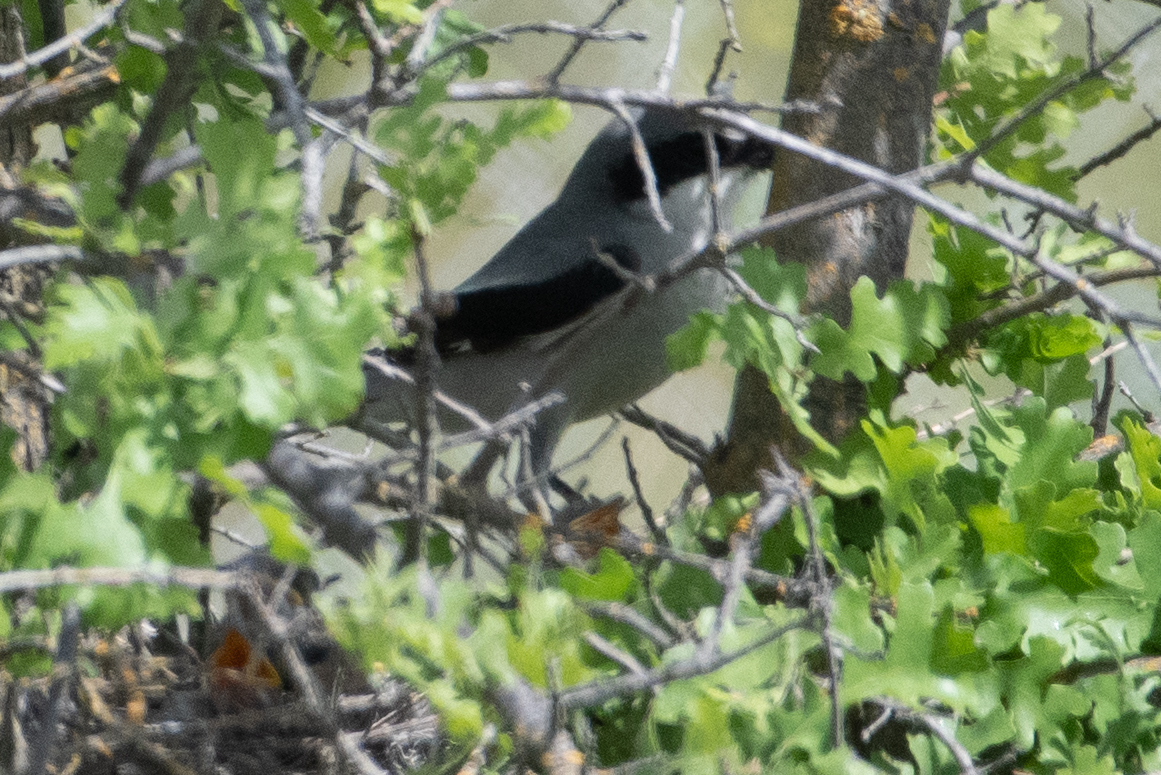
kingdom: Animalia
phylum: Chordata
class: Aves
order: Passeriformes
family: Laniidae
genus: Lanius
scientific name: Lanius ludovicianus
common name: Loggerhead shrike
